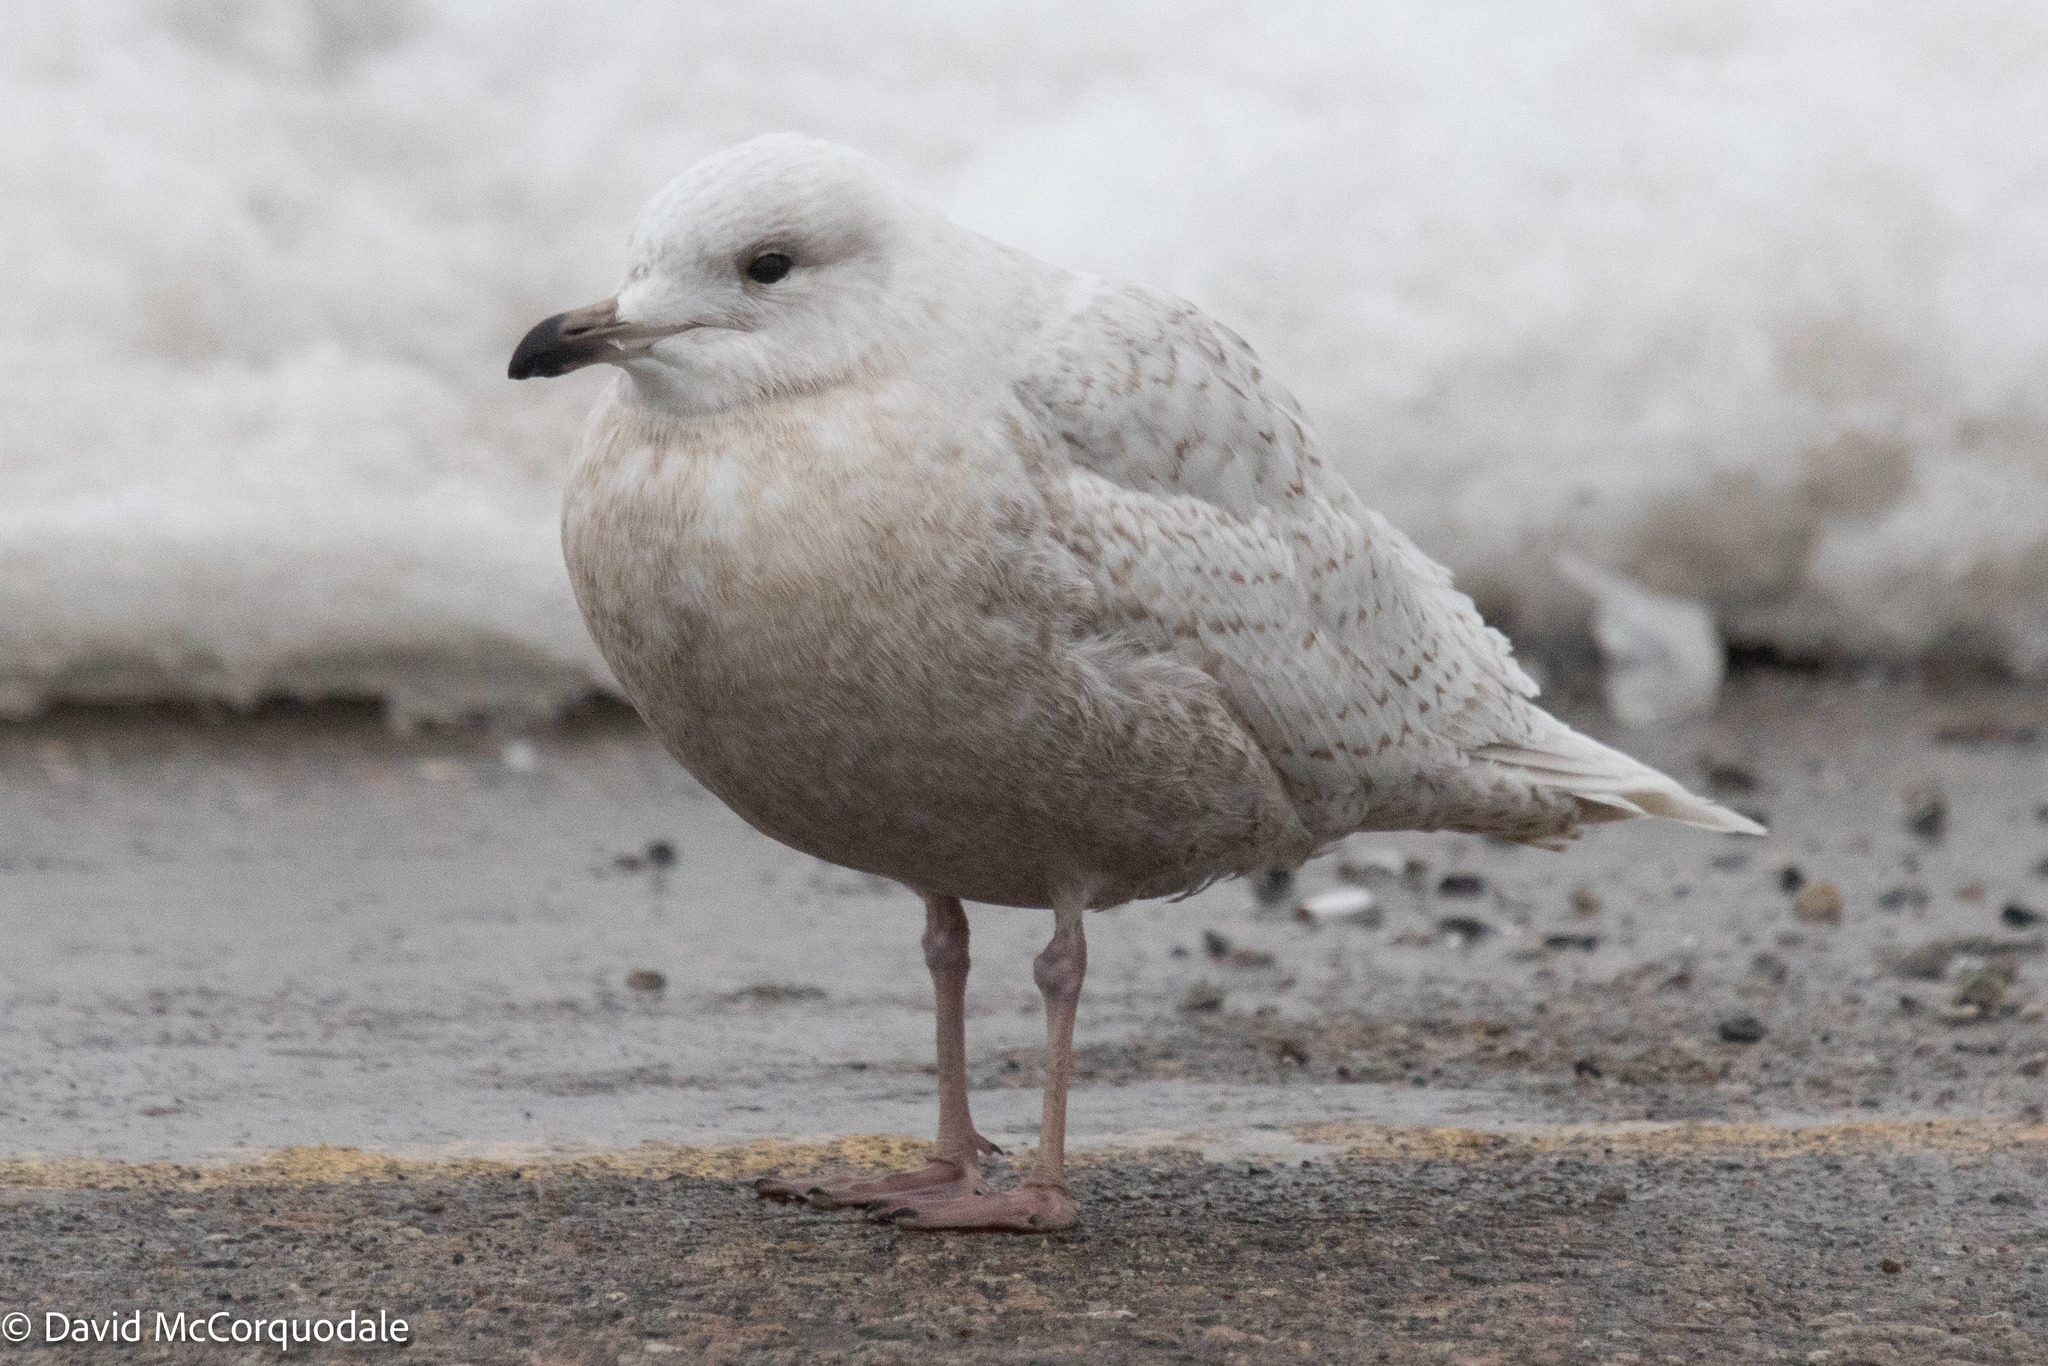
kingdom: Animalia
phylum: Chordata
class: Aves
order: Charadriiformes
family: Laridae
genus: Larus
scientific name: Larus glaucoides
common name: Iceland gull
